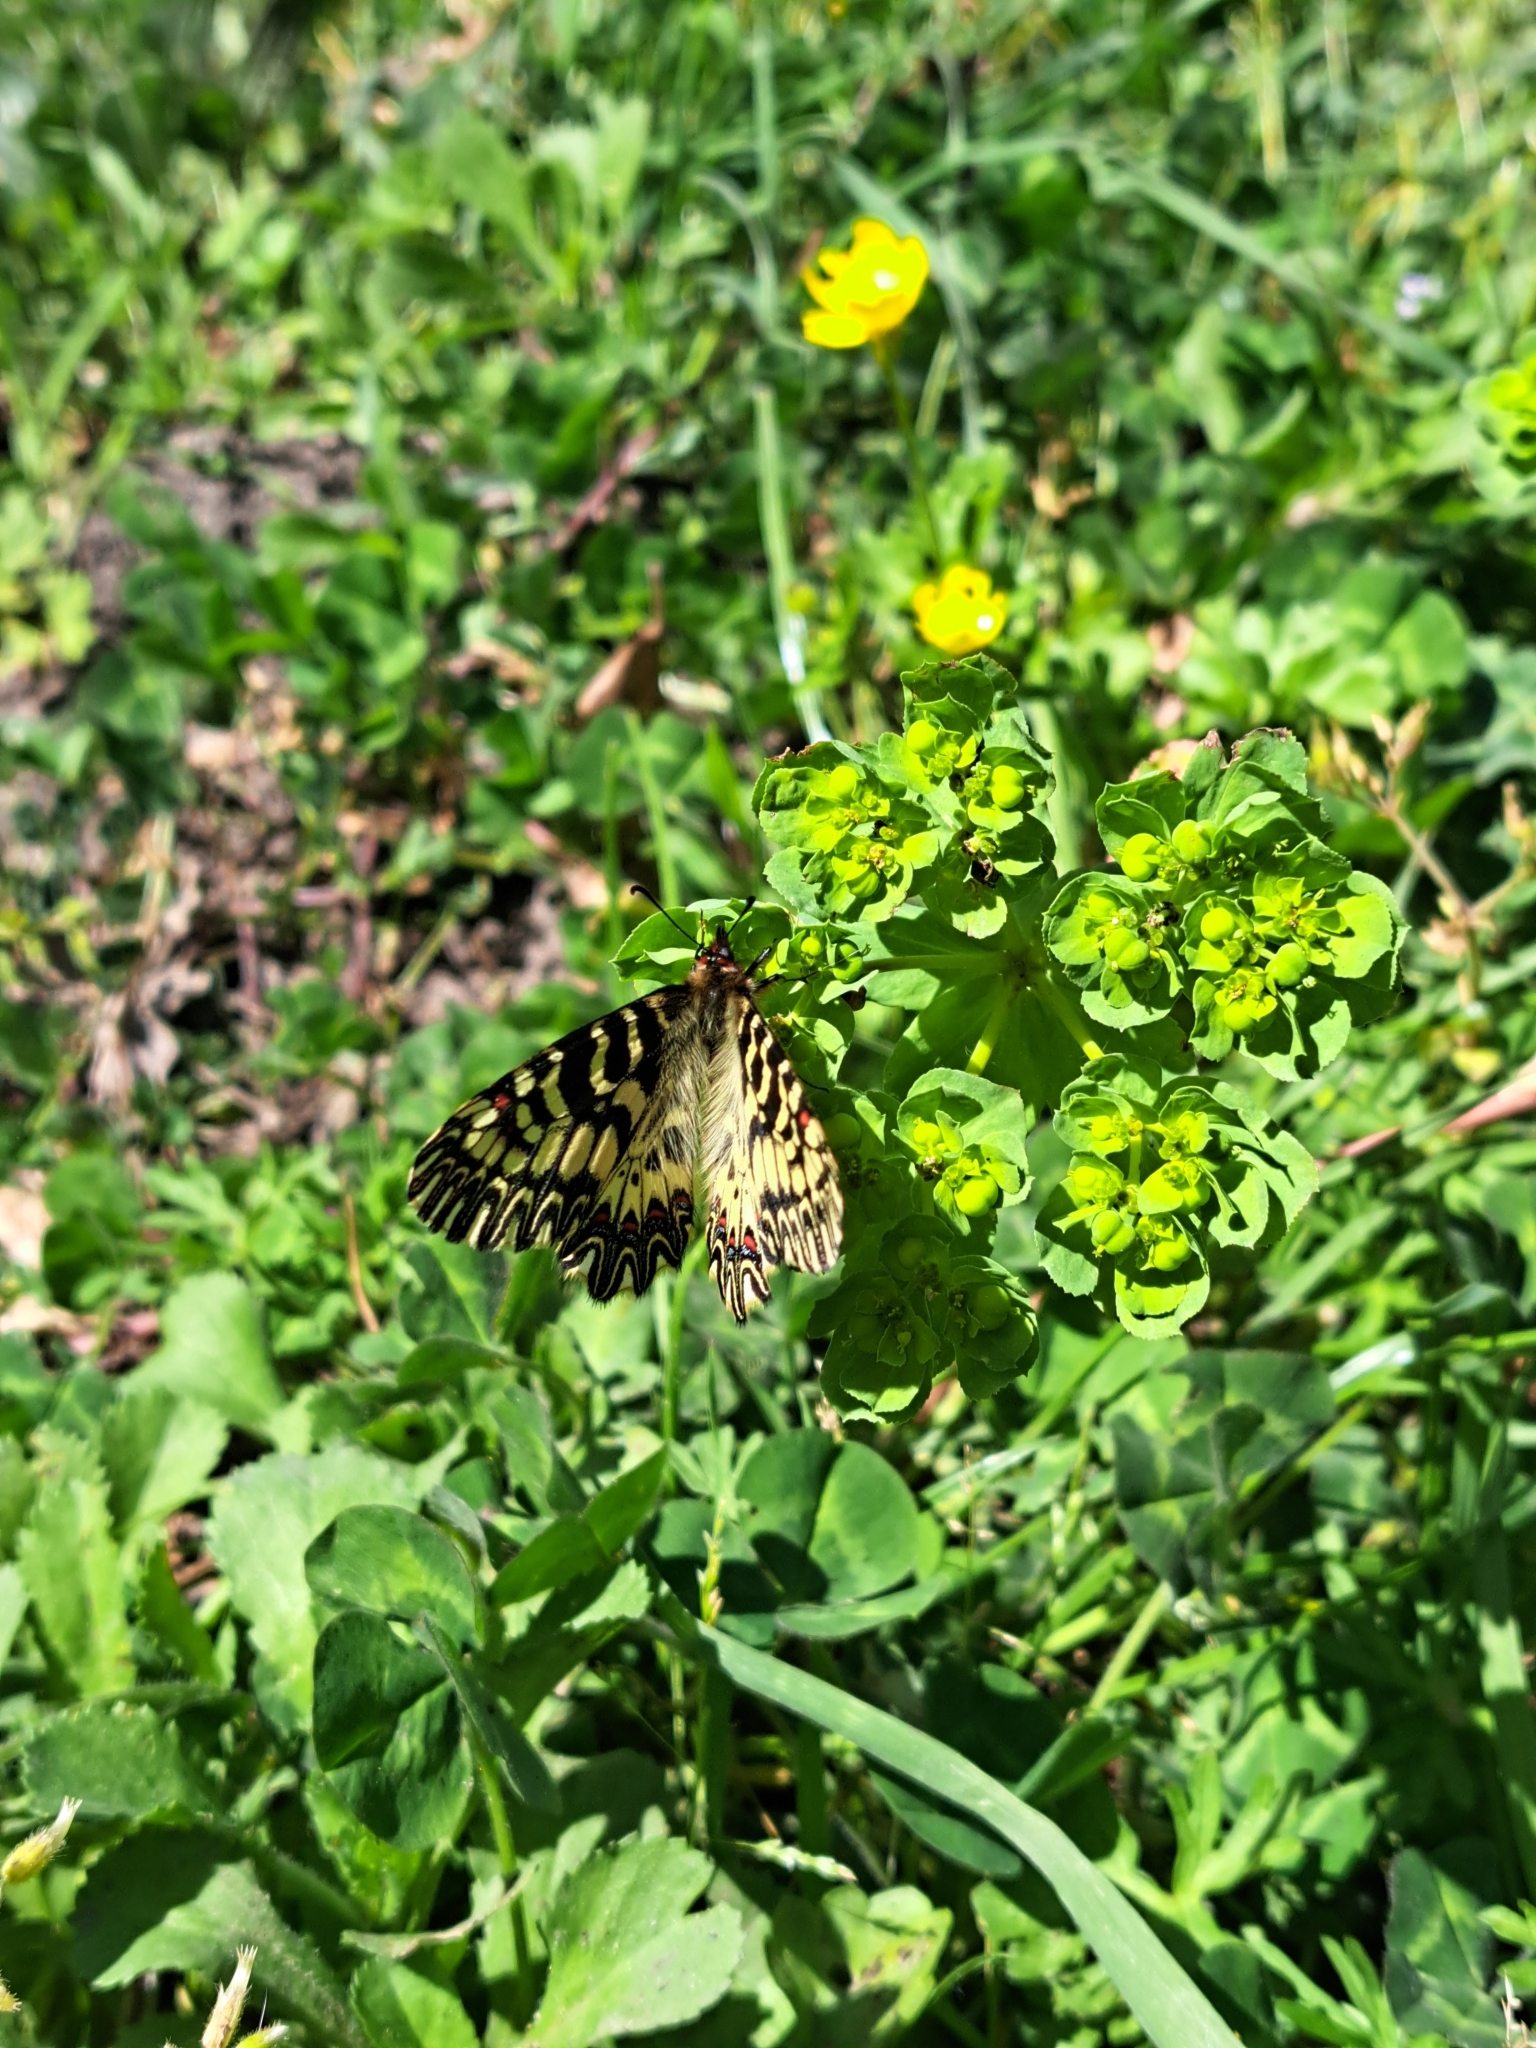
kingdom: Animalia
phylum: Arthropoda
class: Insecta
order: Lepidoptera
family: Papilionidae
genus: Zerynthia
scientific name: Zerynthia cassandra
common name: Italian festoon
